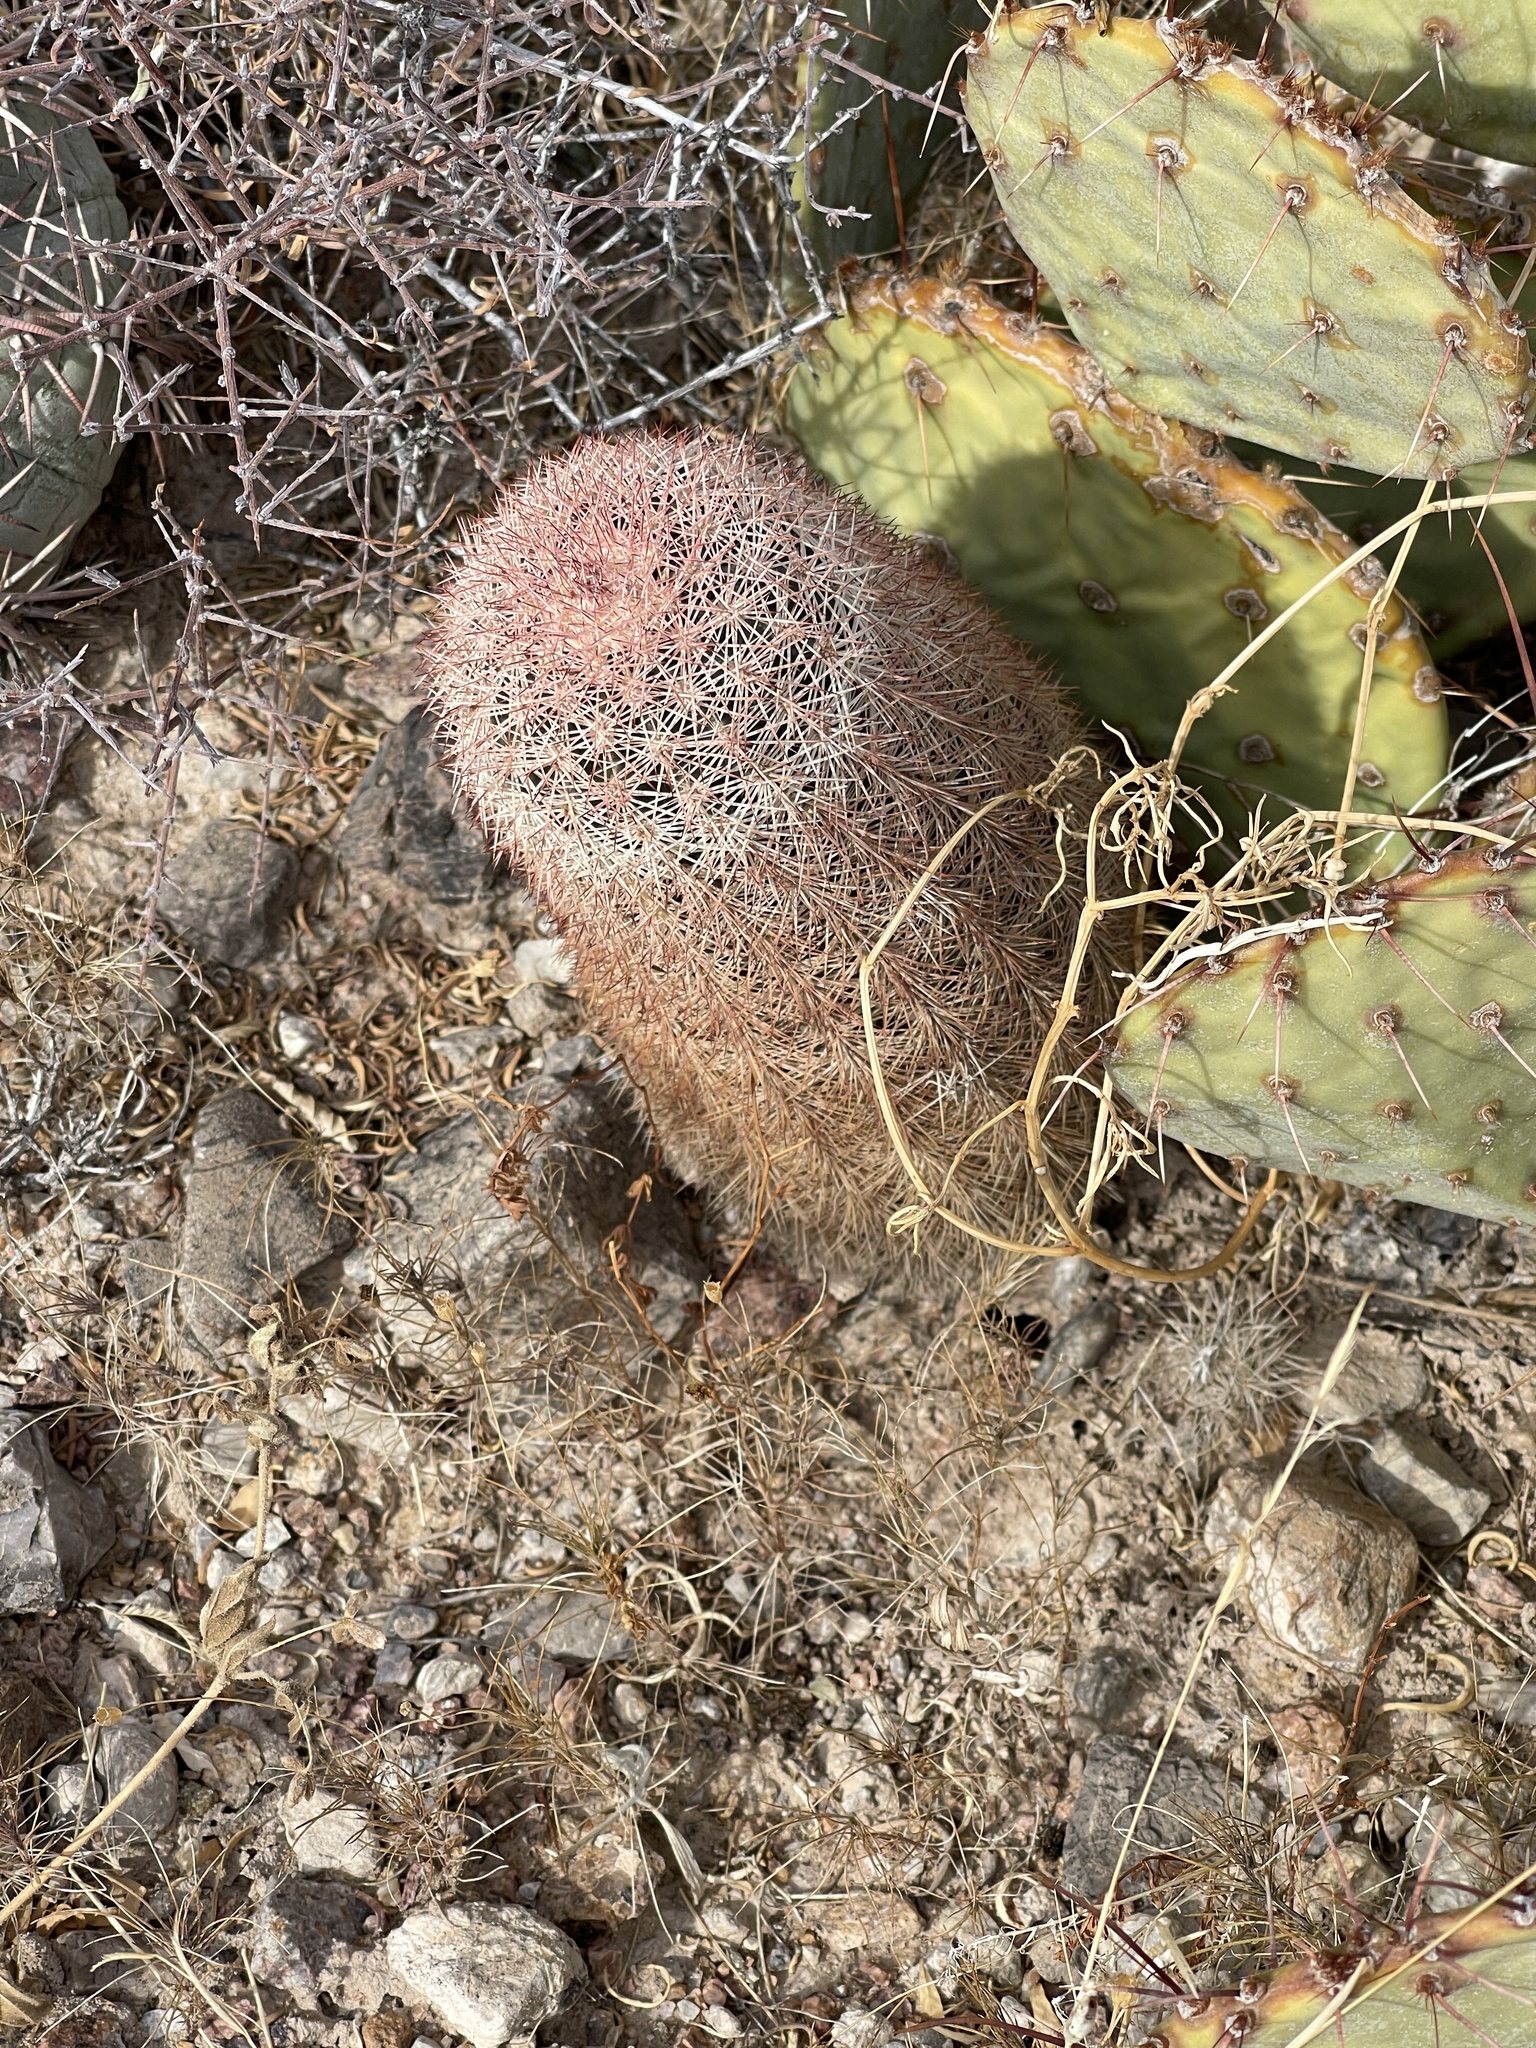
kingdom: Plantae
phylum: Tracheophyta
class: Magnoliopsida
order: Caryophyllales
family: Cactaceae
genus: Echinocereus
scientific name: Echinocereus dasyacanthus
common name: Spiny hedgehog cactus
